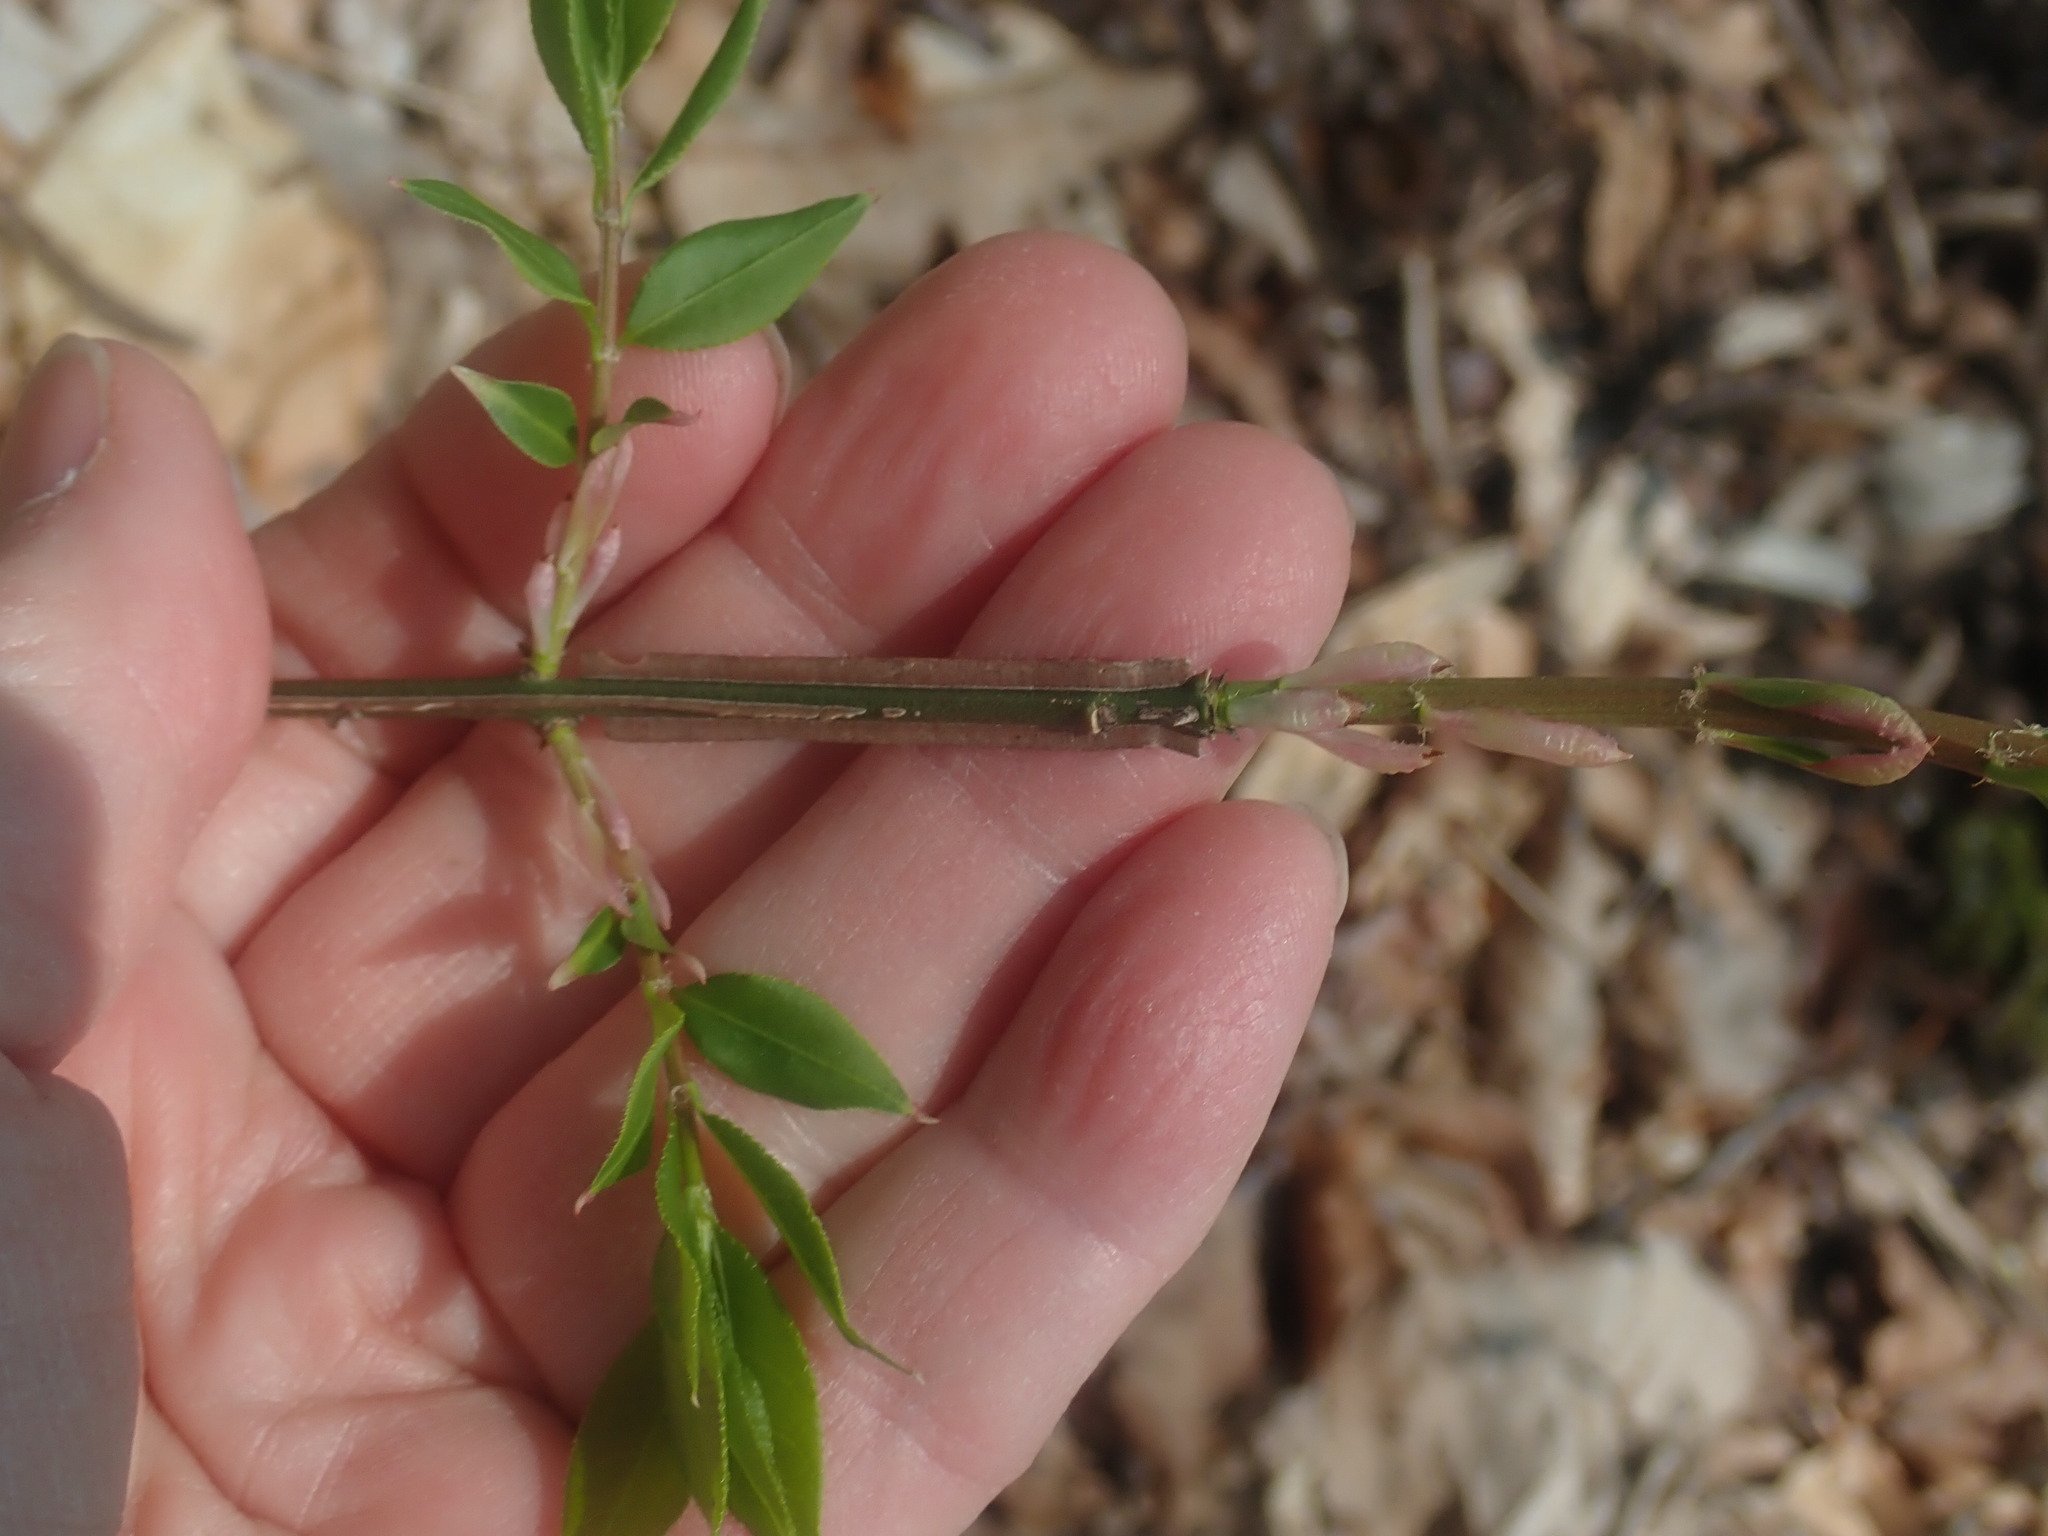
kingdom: Plantae
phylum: Tracheophyta
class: Magnoliopsida
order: Celastrales
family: Celastraceae
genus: Euonymus
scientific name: Euonymus alatus
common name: Winged euonymus
